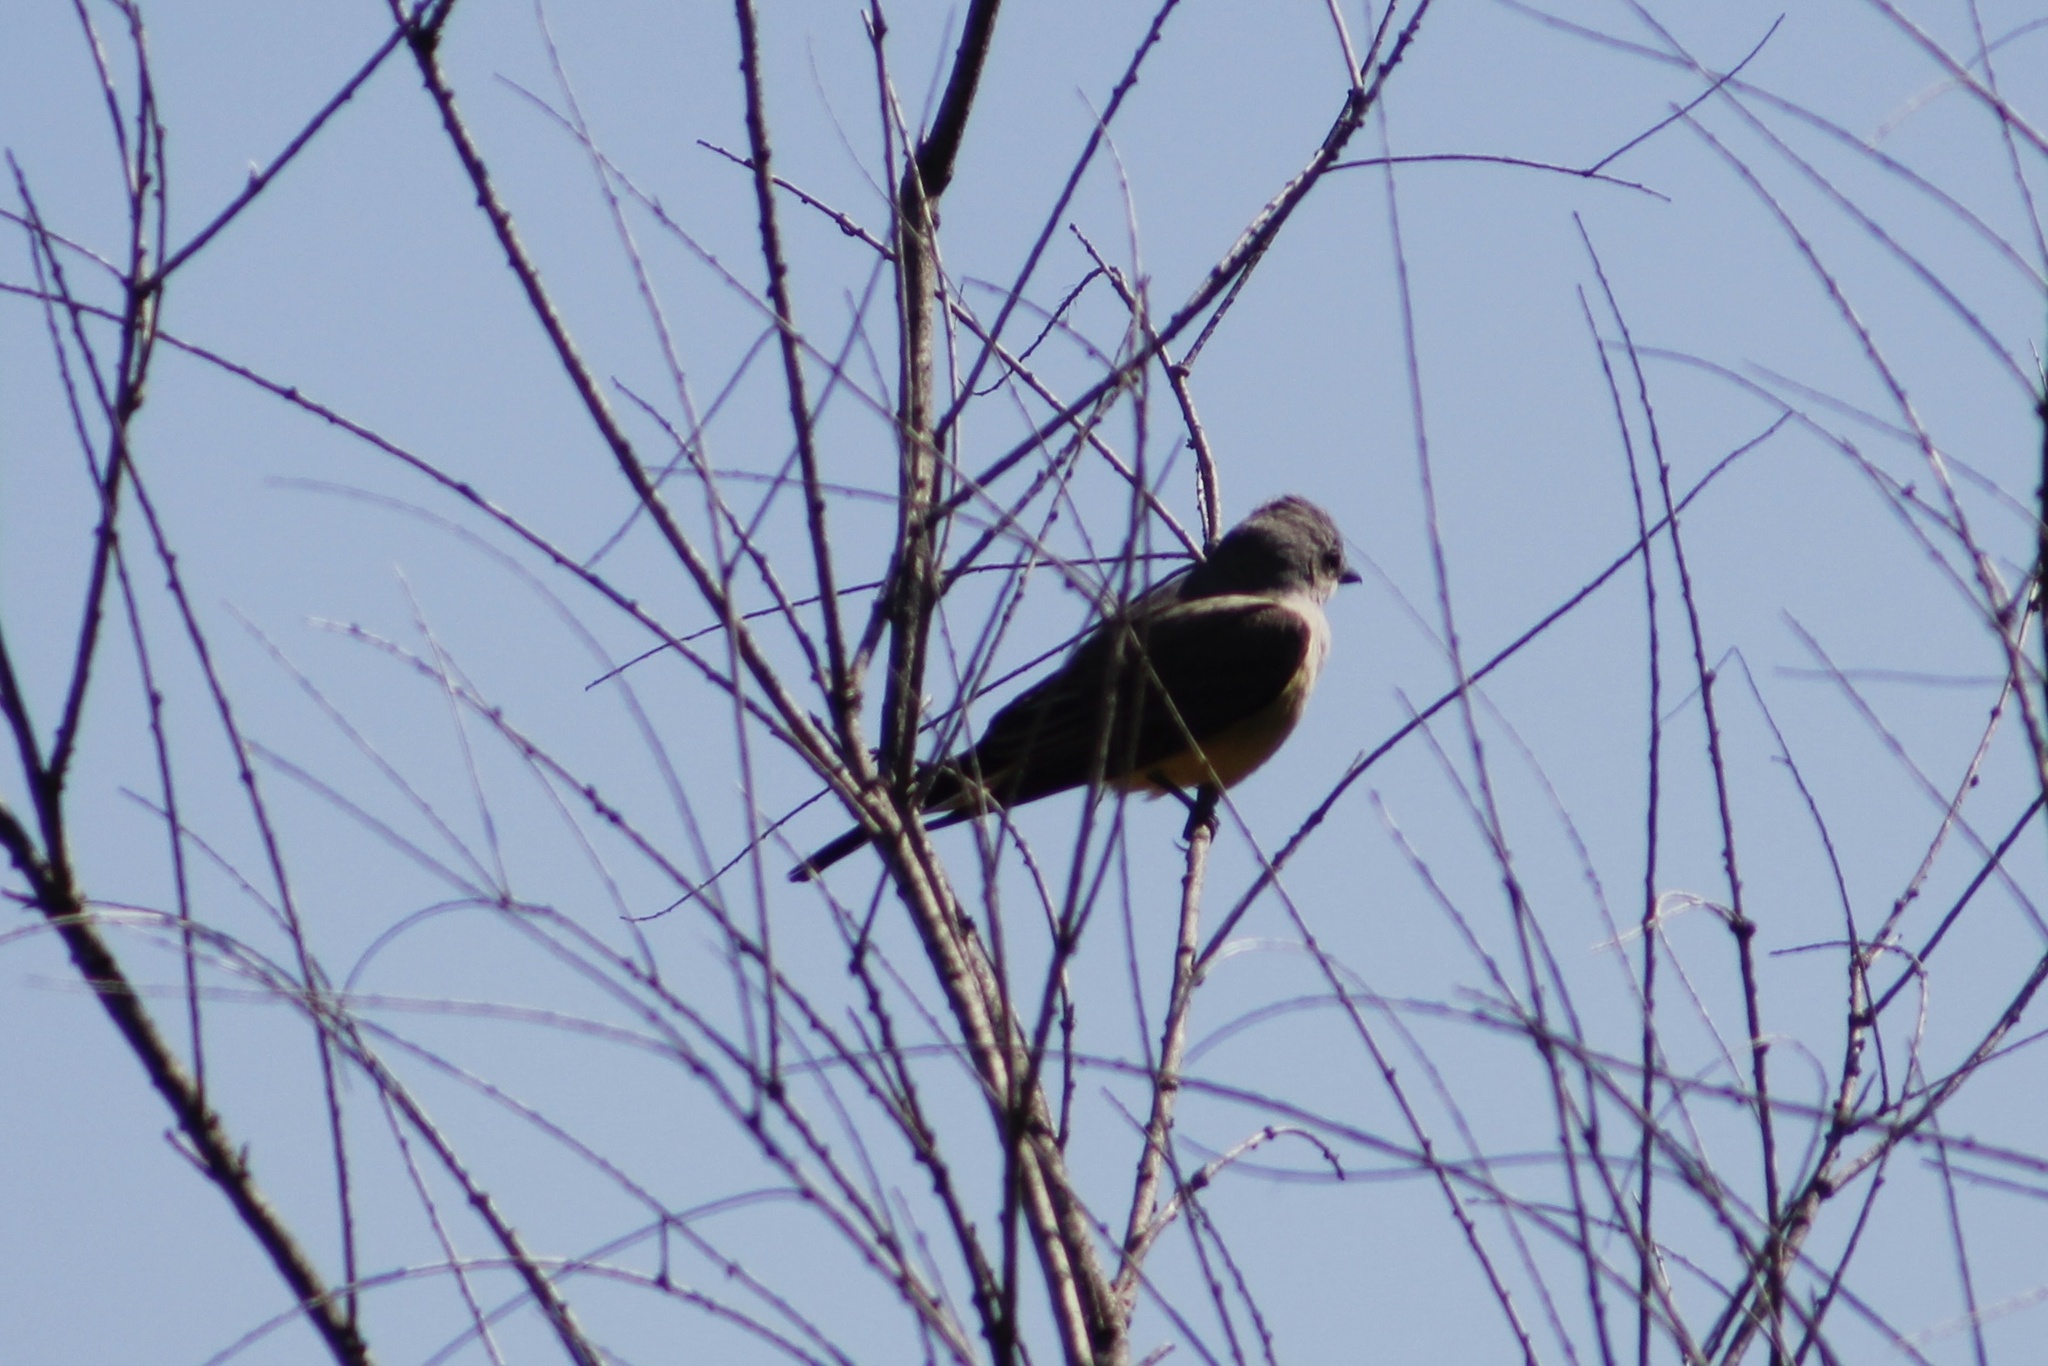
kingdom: Animalia
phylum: Chordata
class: Aves
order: Passeriformes
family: Tyrannidae
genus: Tyrannus
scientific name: Tyrannus verticalis
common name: Western kingbird
